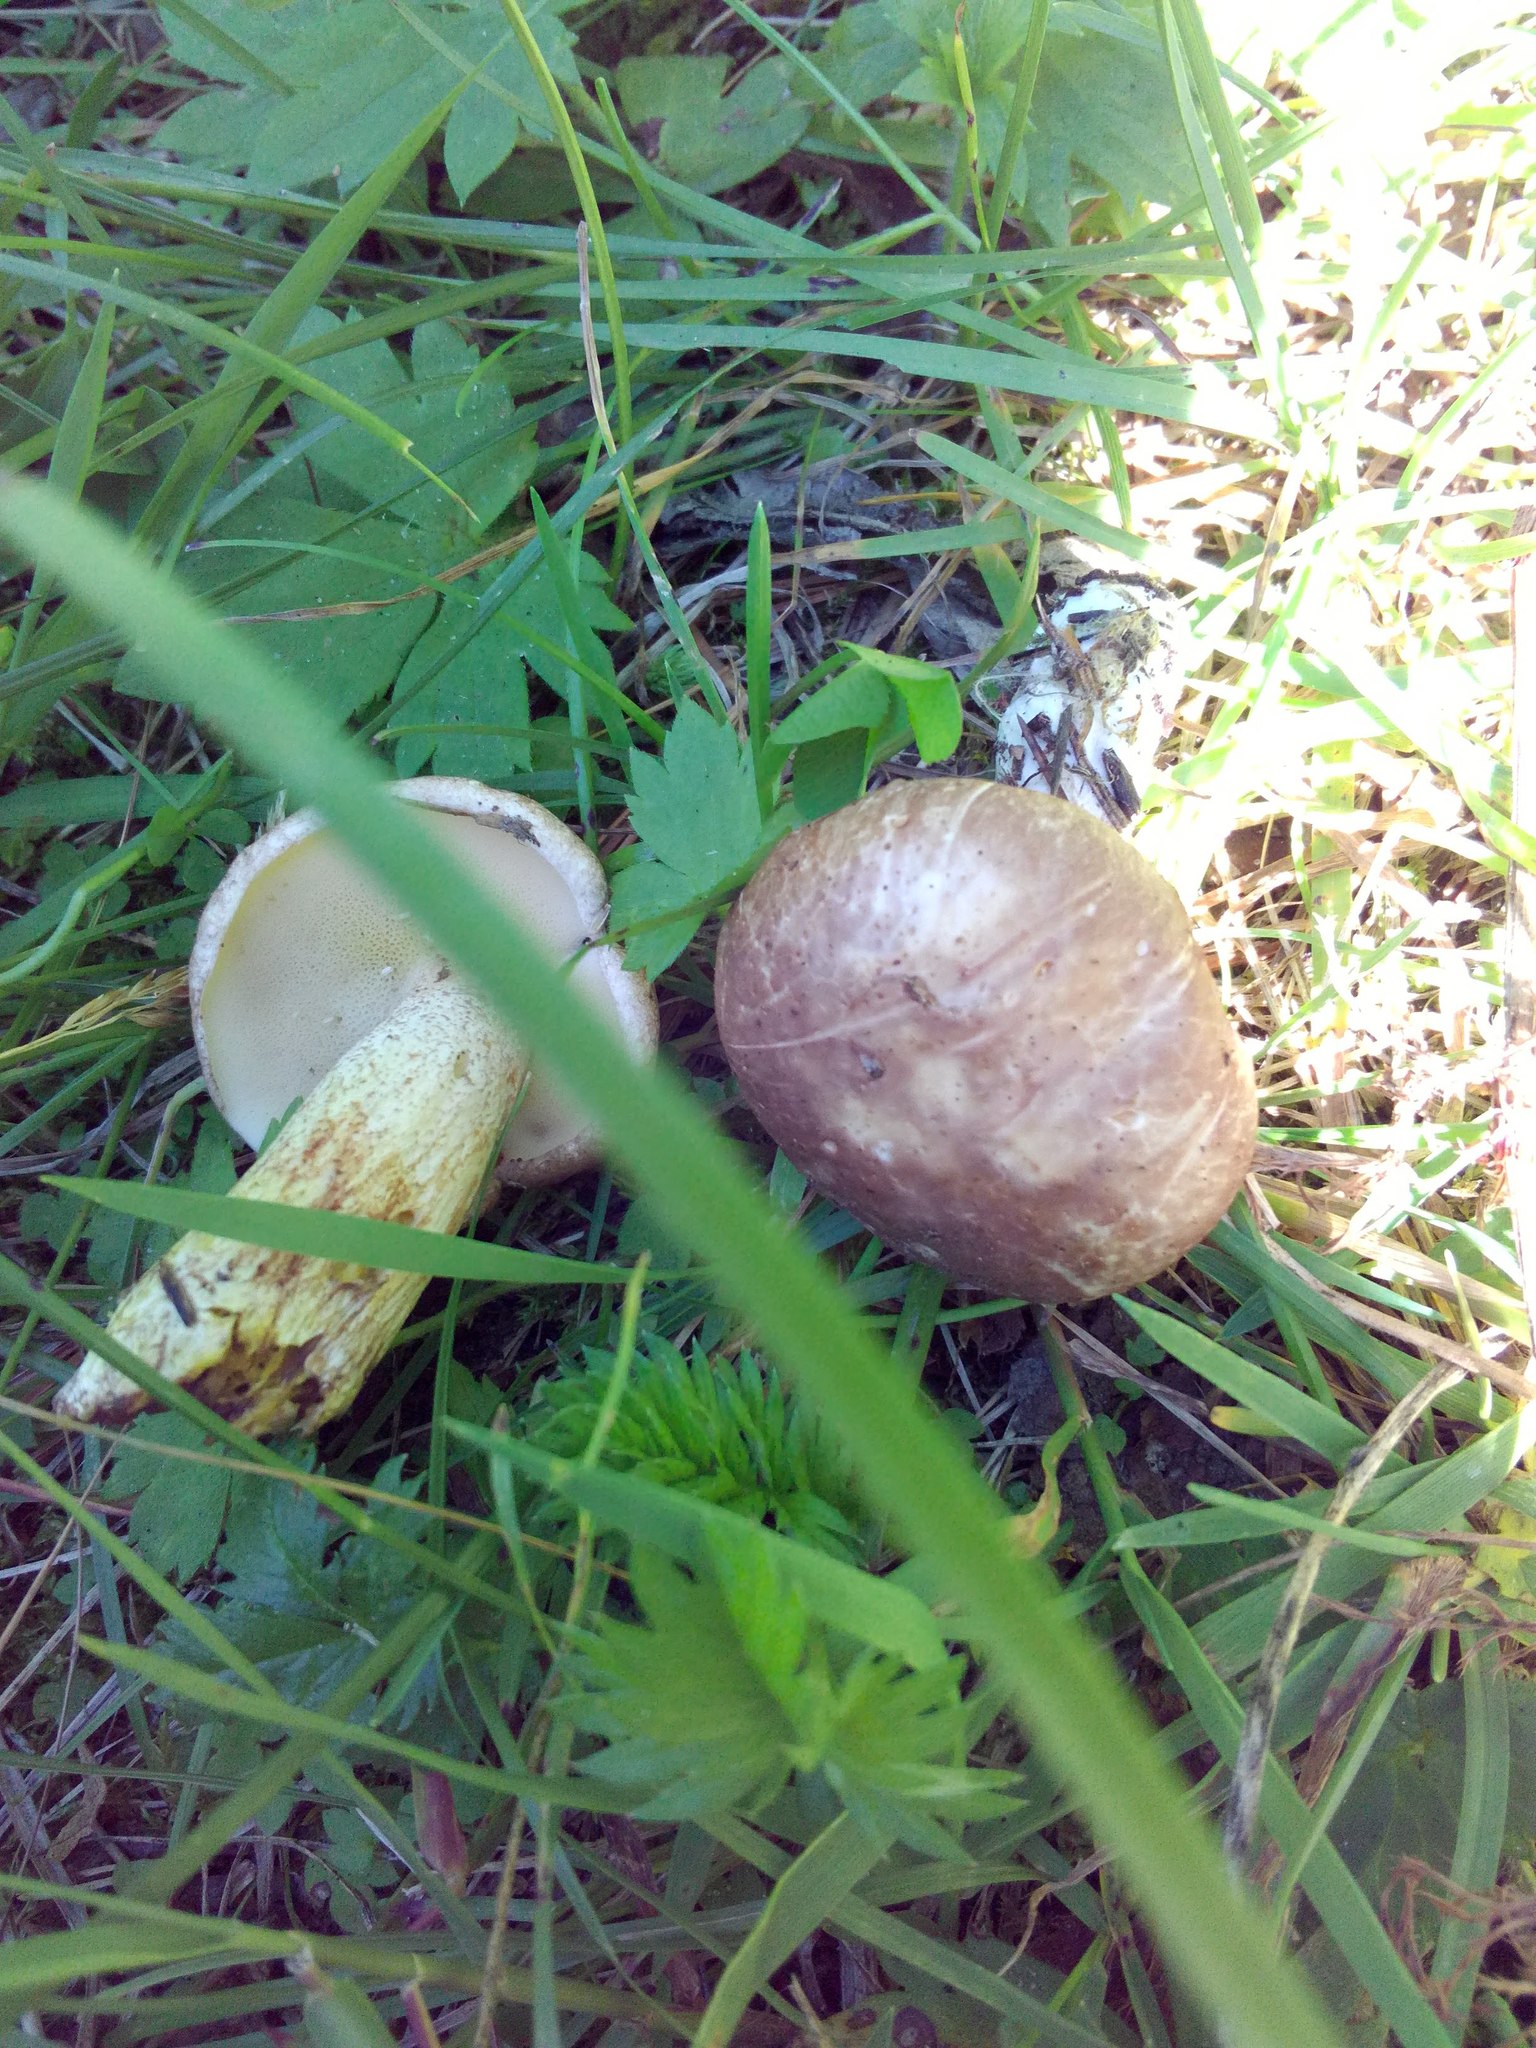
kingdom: Fungi
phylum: Basidiomycota
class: Agaricomycetes
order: Boletales
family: Suillaceae
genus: Suillus
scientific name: Suillus placidus
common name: Slippery white bolete
